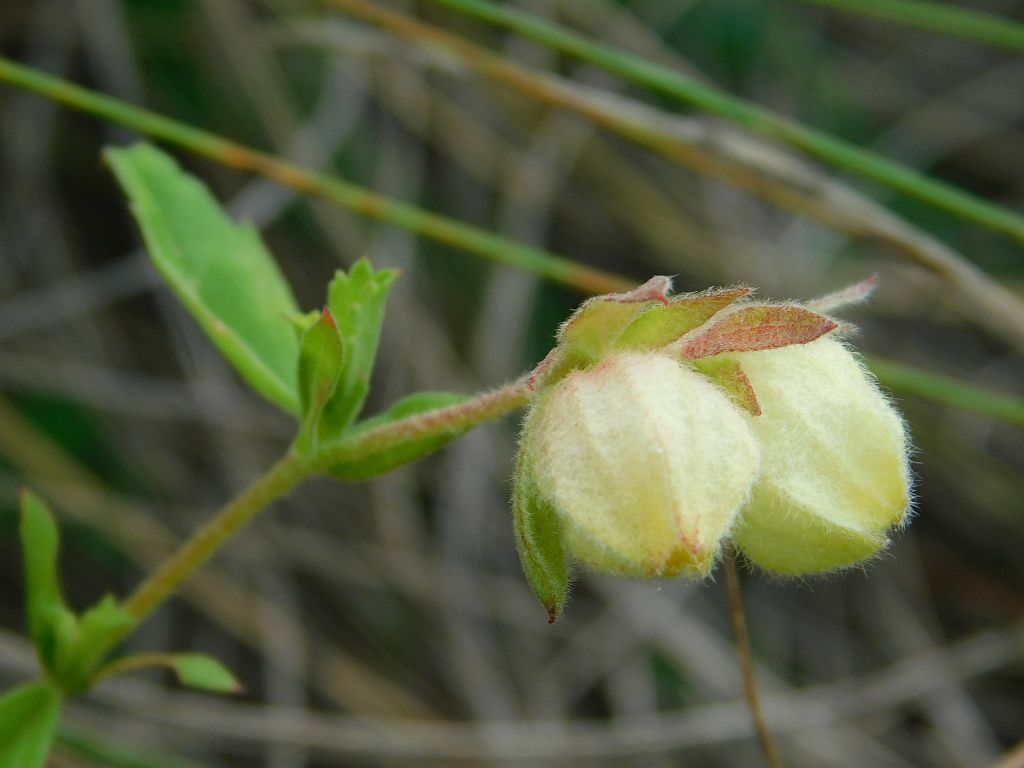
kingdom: Plantae
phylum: Tracheophyta
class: Magnoliopsida
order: Malvales
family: Malvaceae
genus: Hermannia
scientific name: Hermannia hyssopifolia
